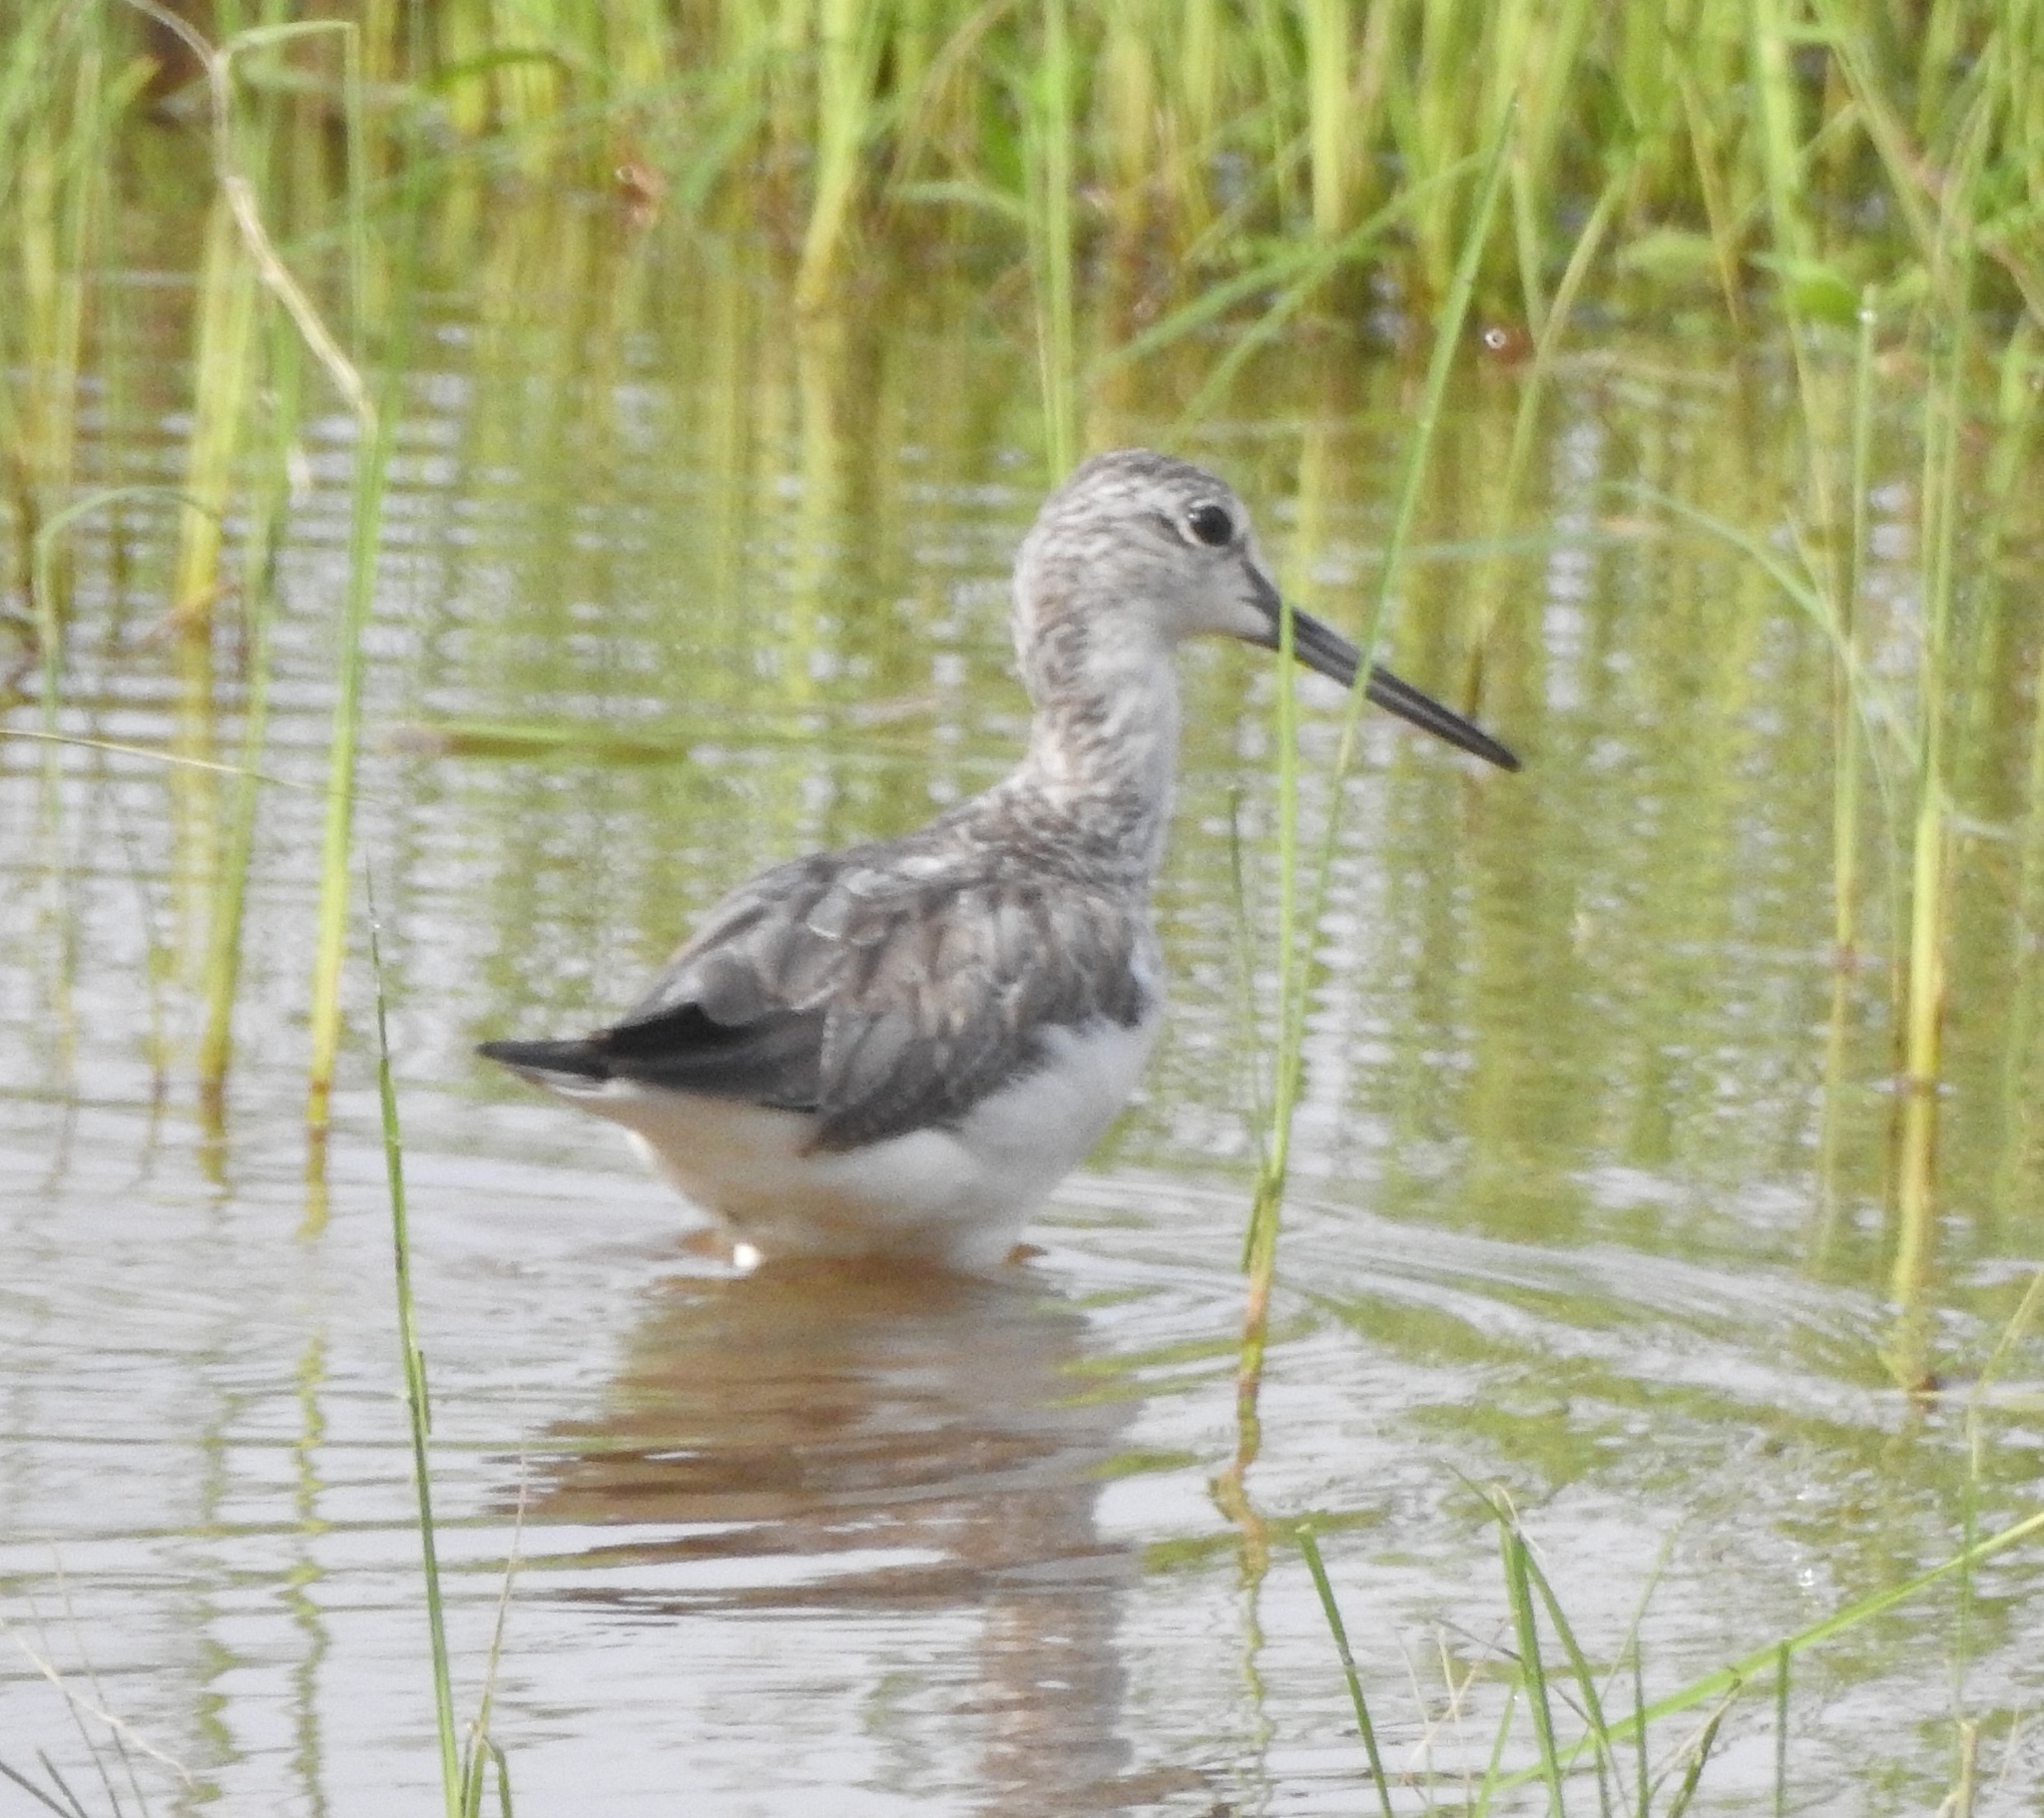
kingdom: Animalia
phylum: Chordata
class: Aves
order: Charadriiformes
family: Scolopacidae
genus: Tringa
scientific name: Tringa nebularia
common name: Common greenshank
